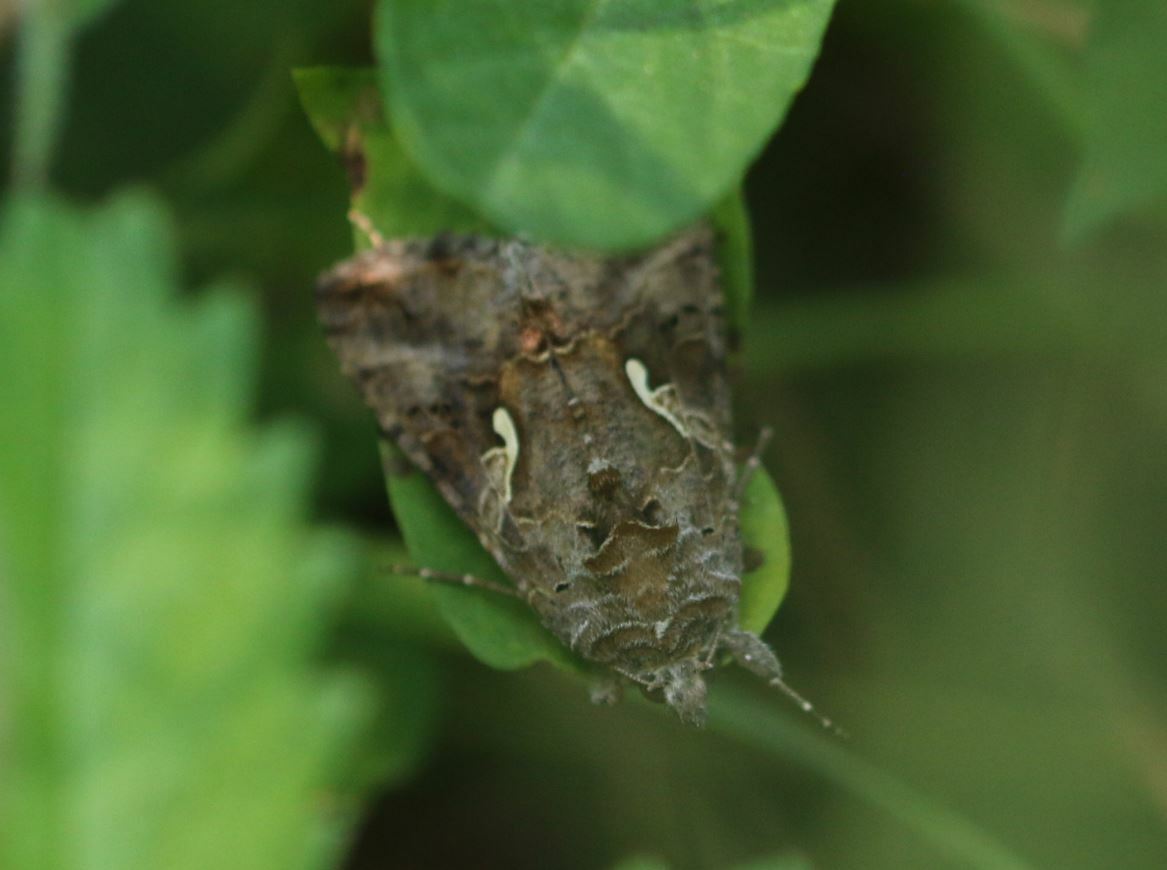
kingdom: Animalia
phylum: Arthropoda
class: Insecta
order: Lepidoptera
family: Noctuidae
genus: Autographa
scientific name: Autographa gamma
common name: Silver y
